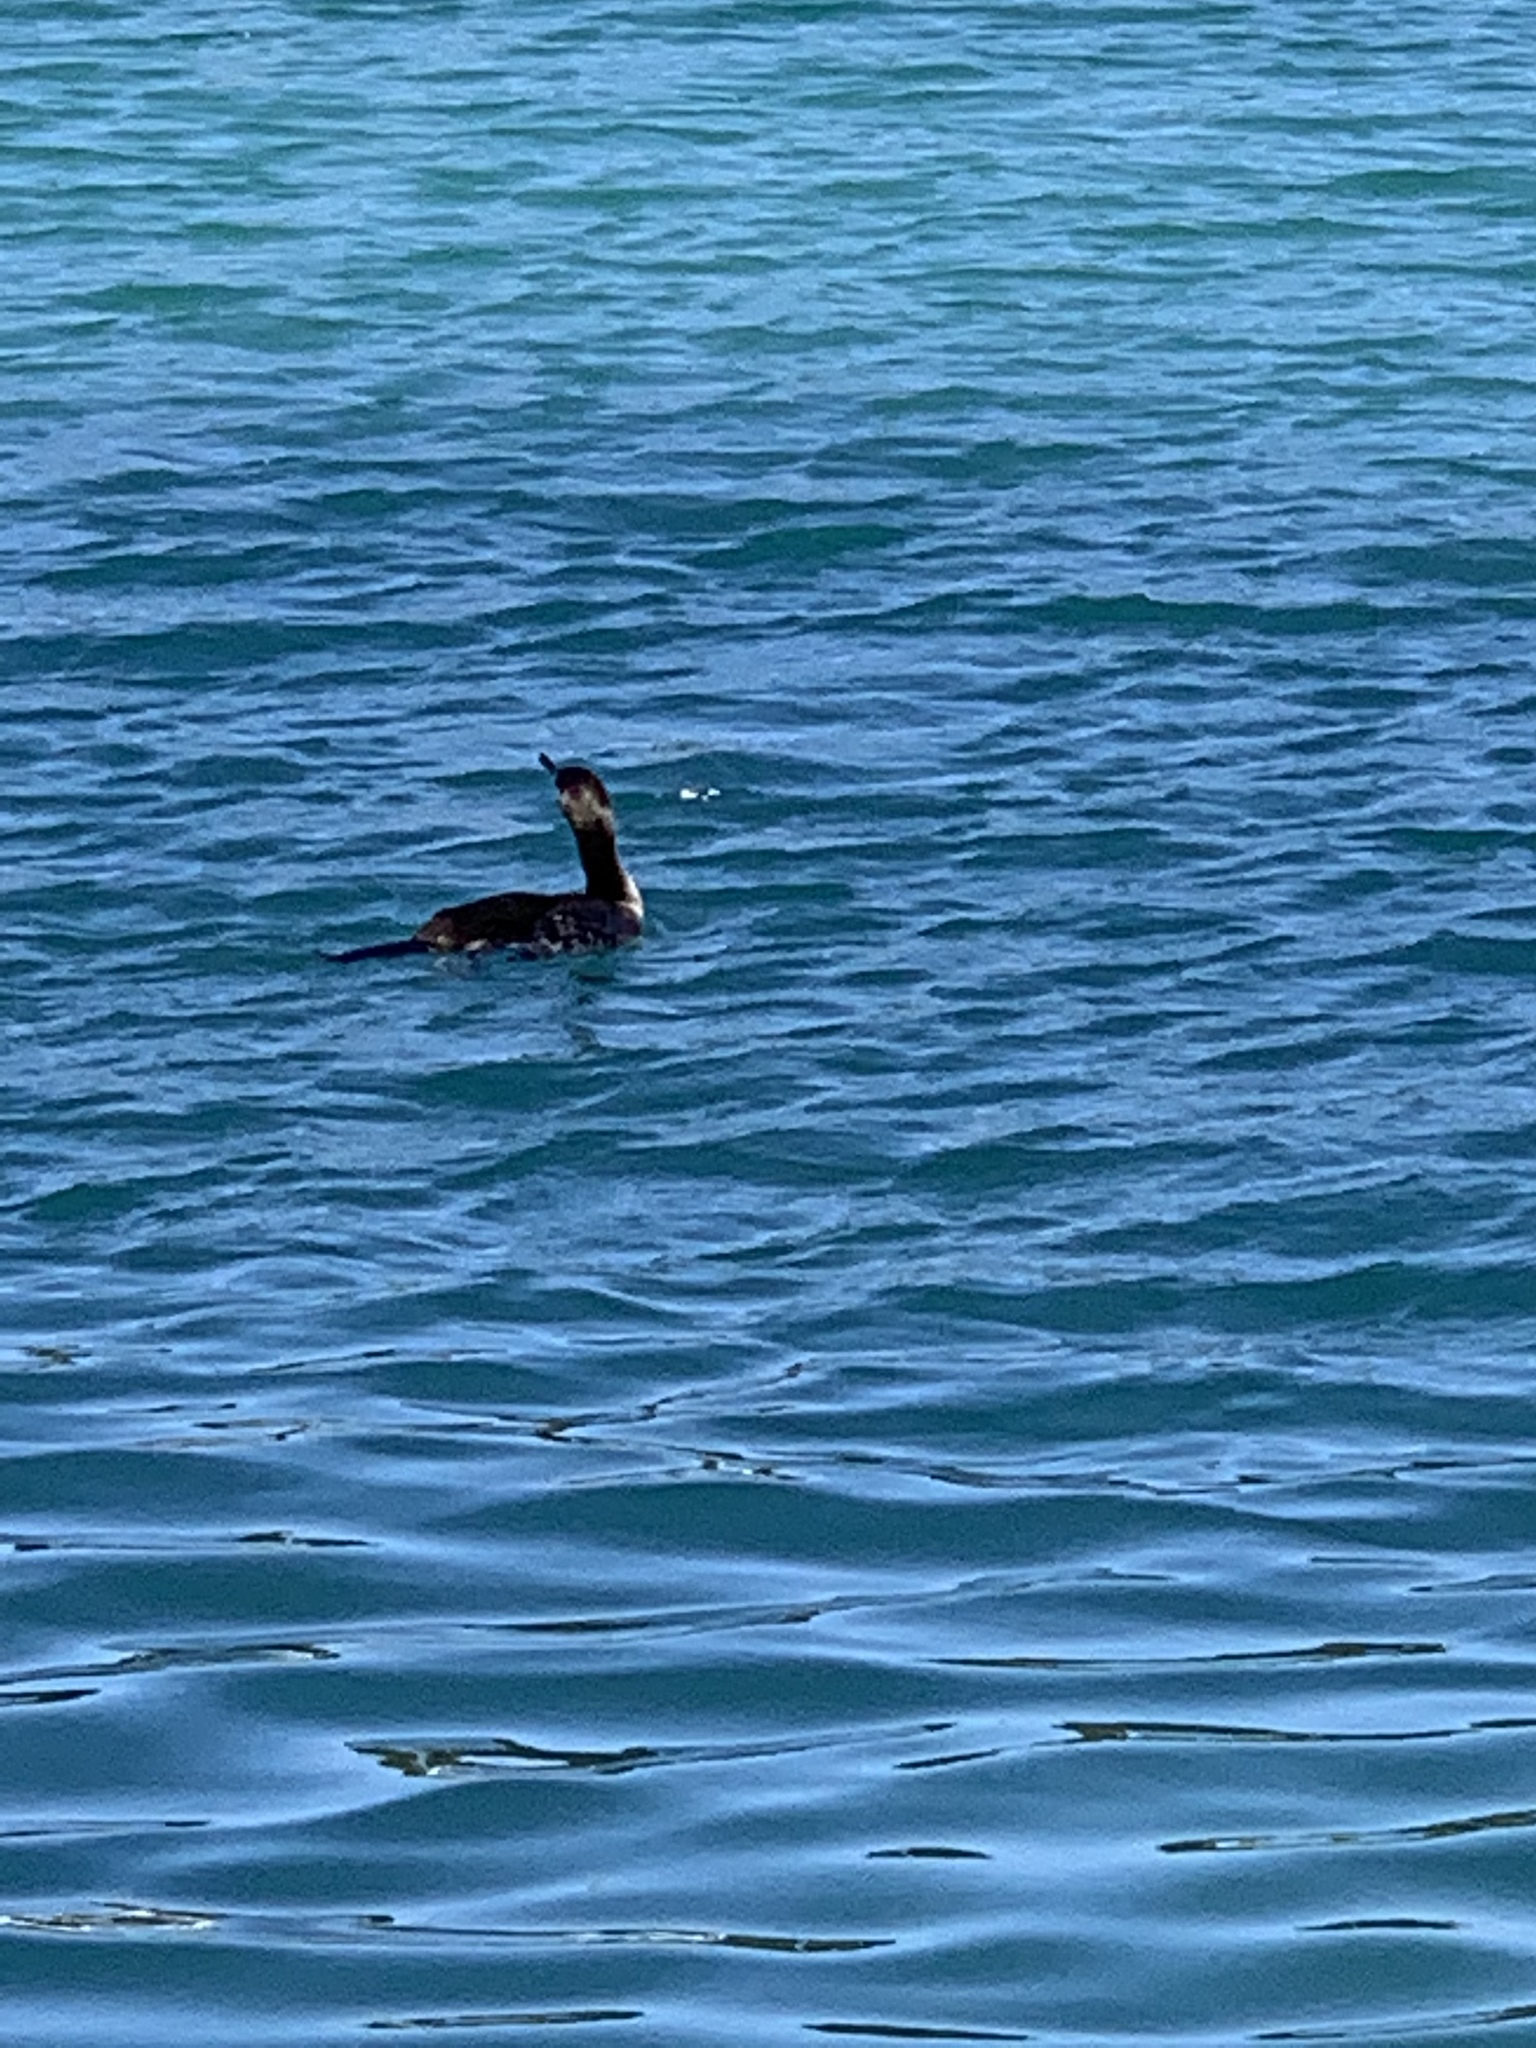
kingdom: Animalia
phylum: Chordata
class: Aves
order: Suliformes
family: Phalacrocoracidae
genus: Phalacrocorax
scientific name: Phalacrocorax carbo
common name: Great cormorant
